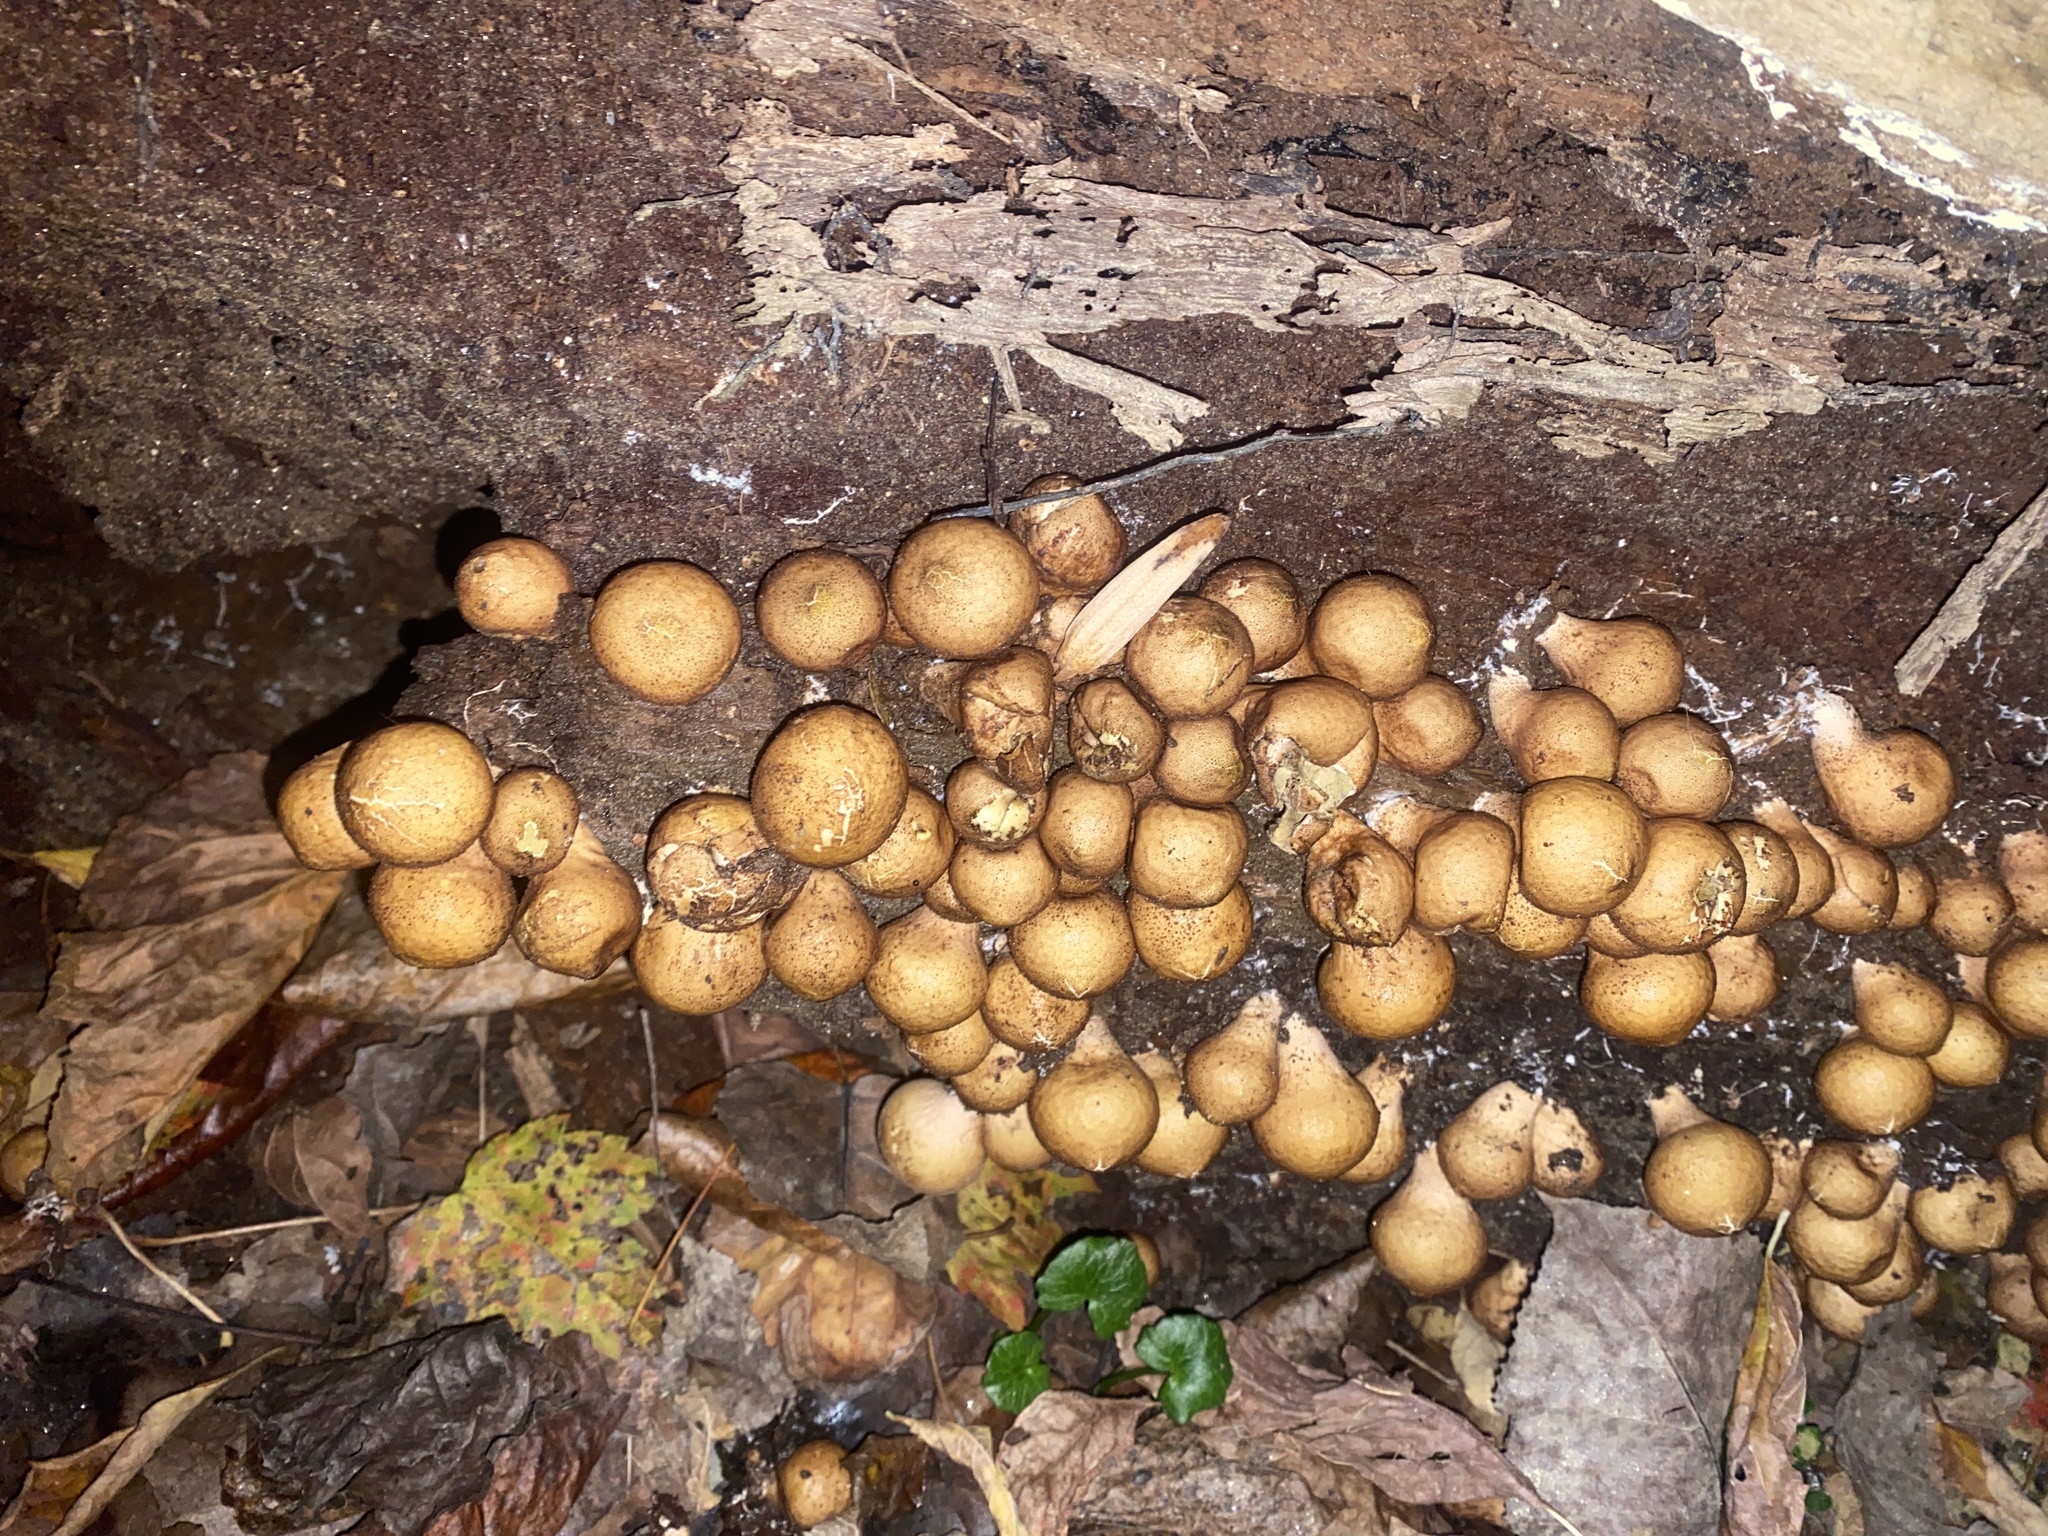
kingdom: Fungi
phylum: Basidiomycota
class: Agaricomycetes
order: Agaricales
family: Lycoperdaceae
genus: Apioperdon
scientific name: Apioperdon pyriforme
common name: Pear-shaped puffball
